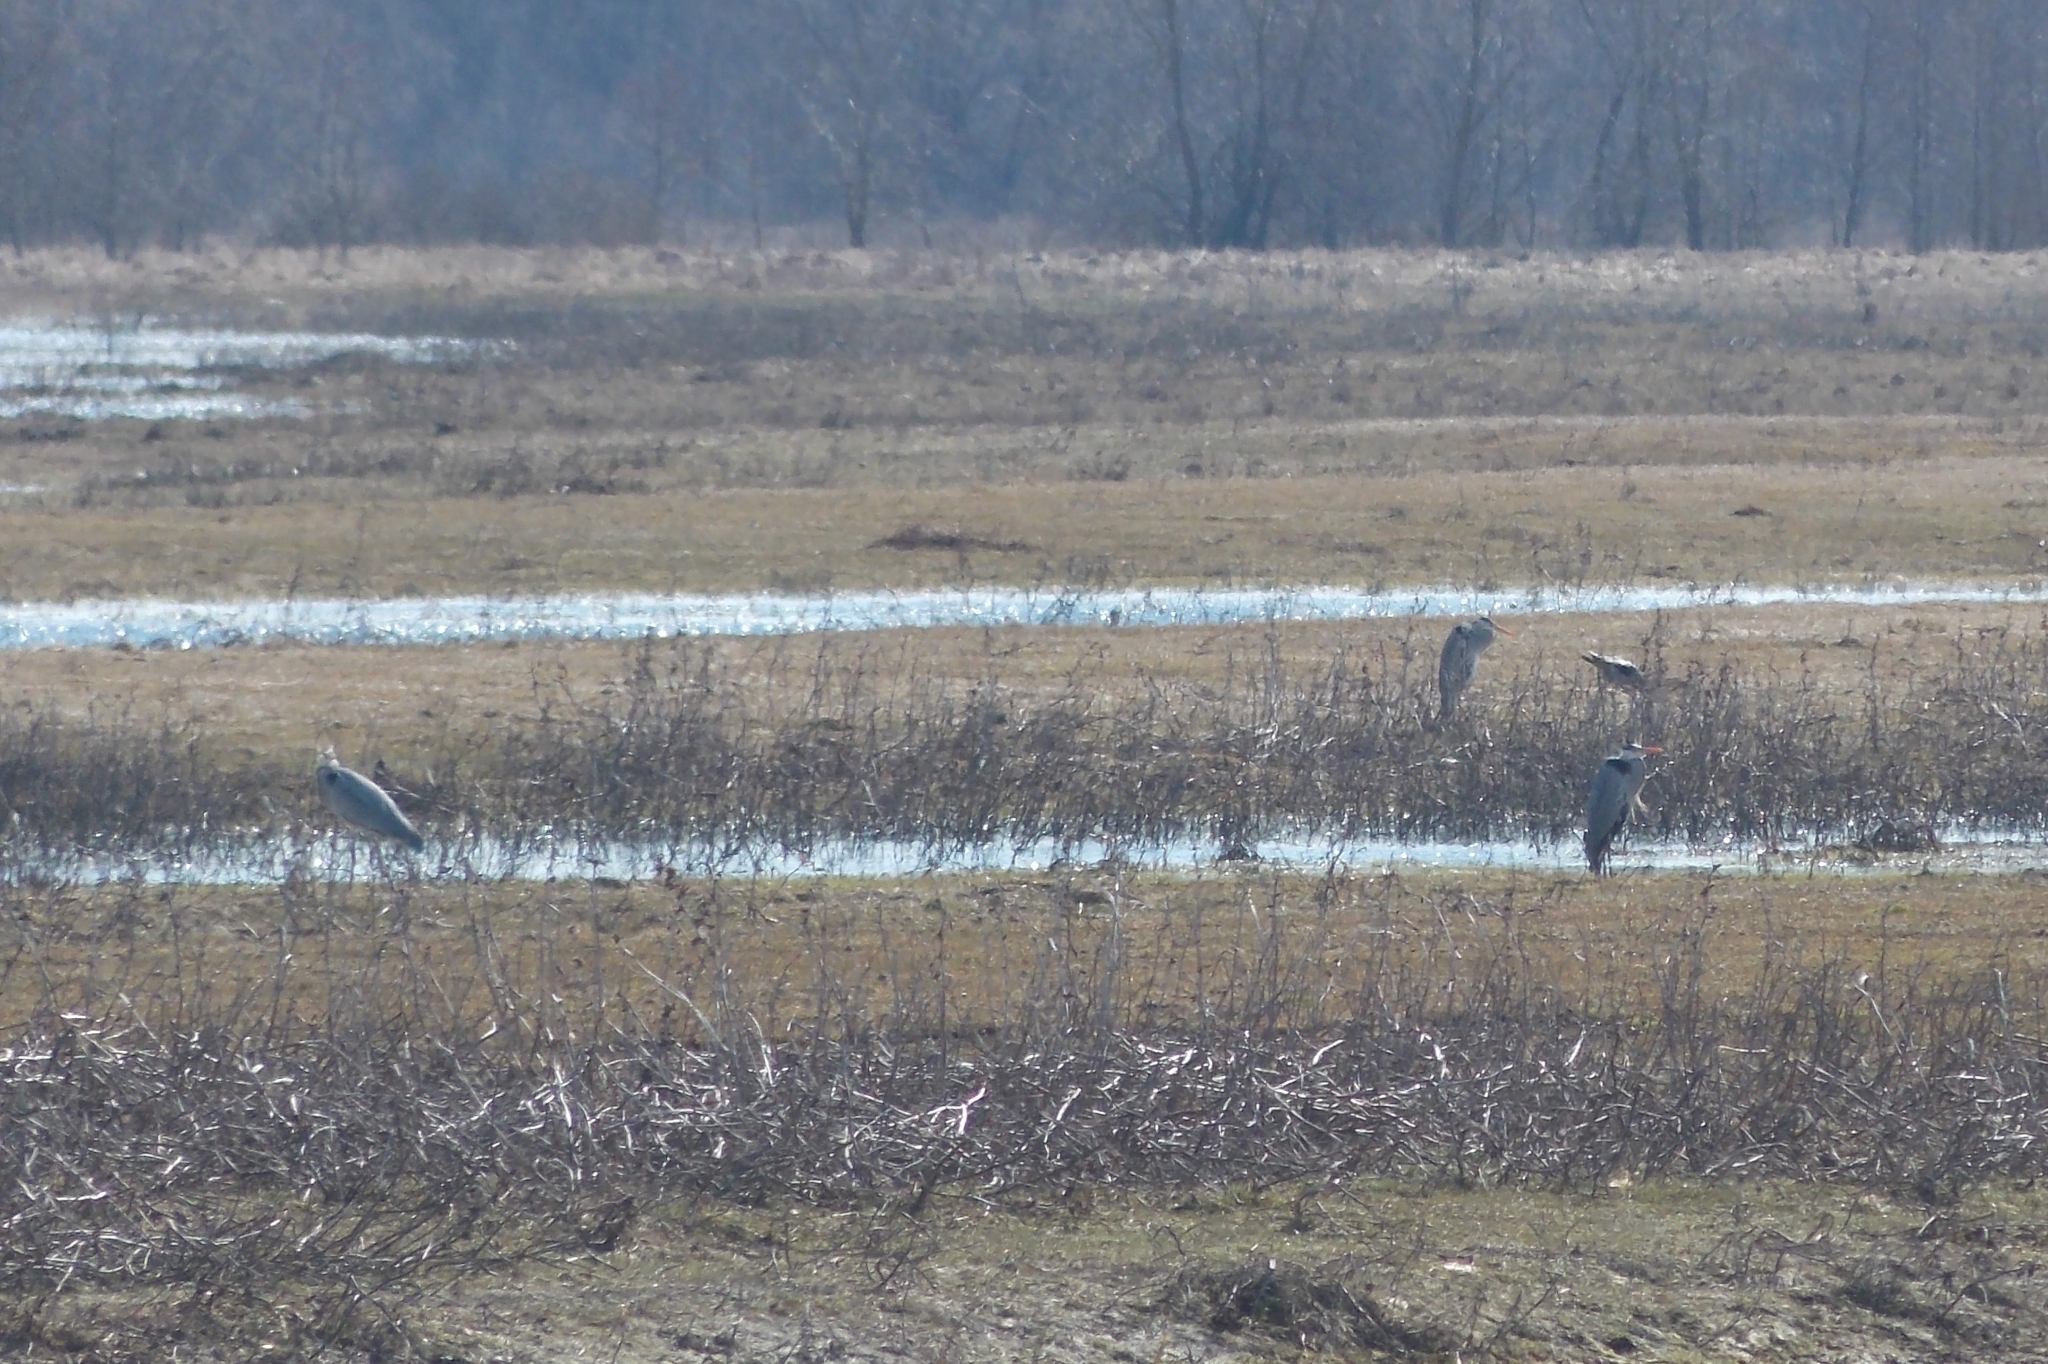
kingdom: Animalia
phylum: Chordata
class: Aves
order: Pelecaniformes
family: Ardeidae
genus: Ardea
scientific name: Ardea cinerea
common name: Grey heron
